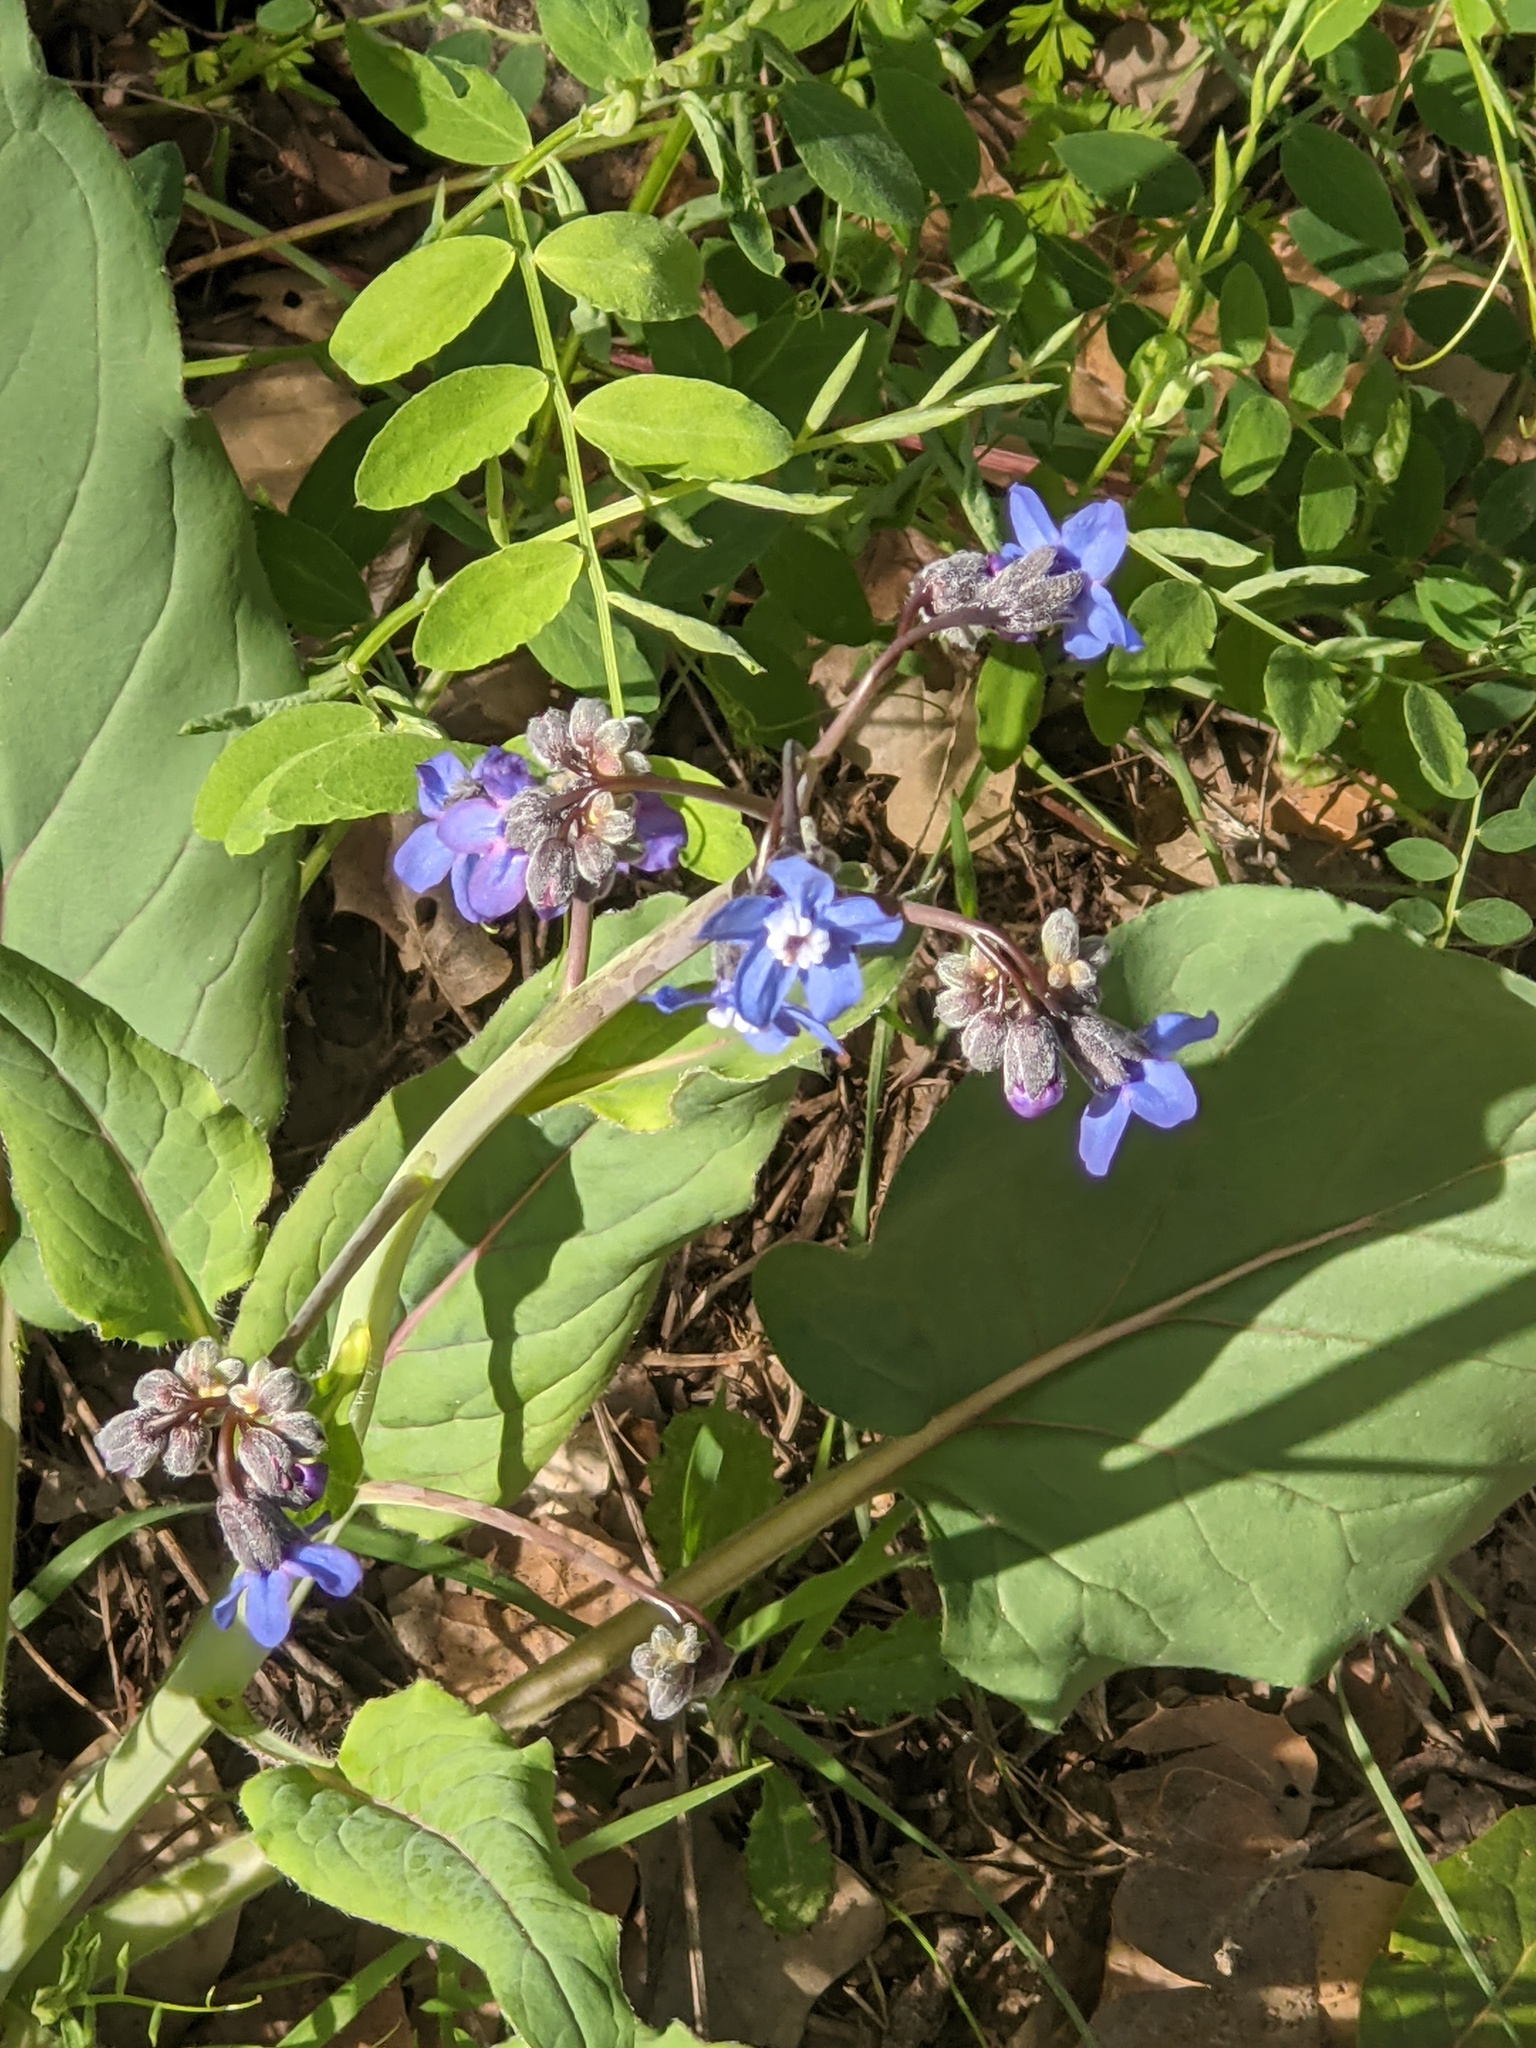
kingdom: Plantae
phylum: Tracheophyta
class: Magnoliopsida
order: Boraginales
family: Boraginaceae
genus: Adelinia
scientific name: Adelinia grande
